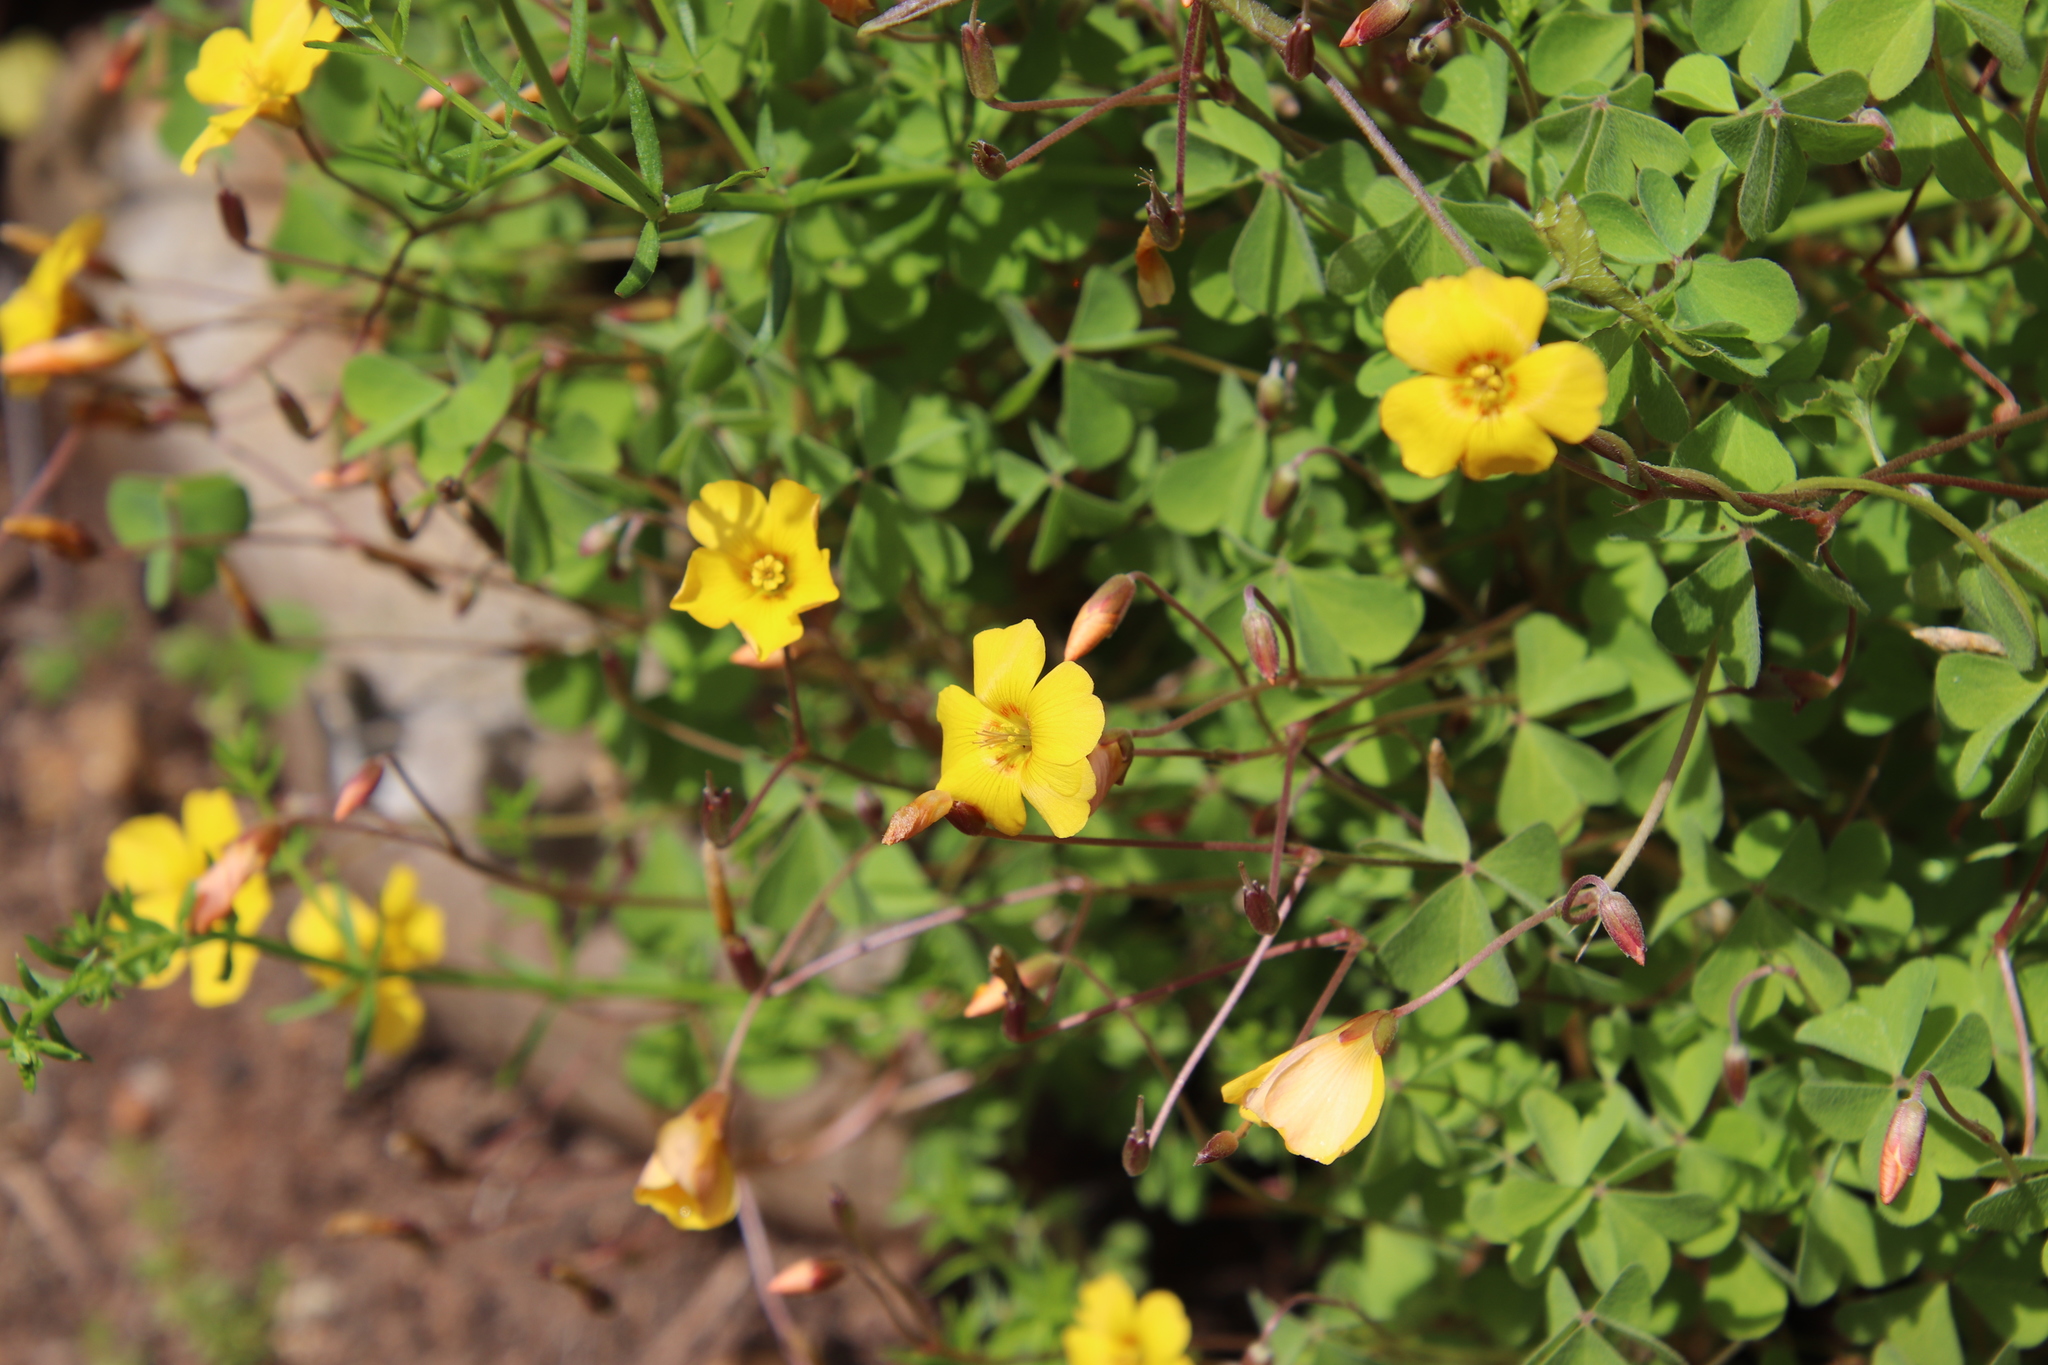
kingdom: Plantae
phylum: Tracheophyta
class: Magnoliopsida
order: Oxalidales
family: Oxalidaceae
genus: Oxalis
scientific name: Oxalis californica
